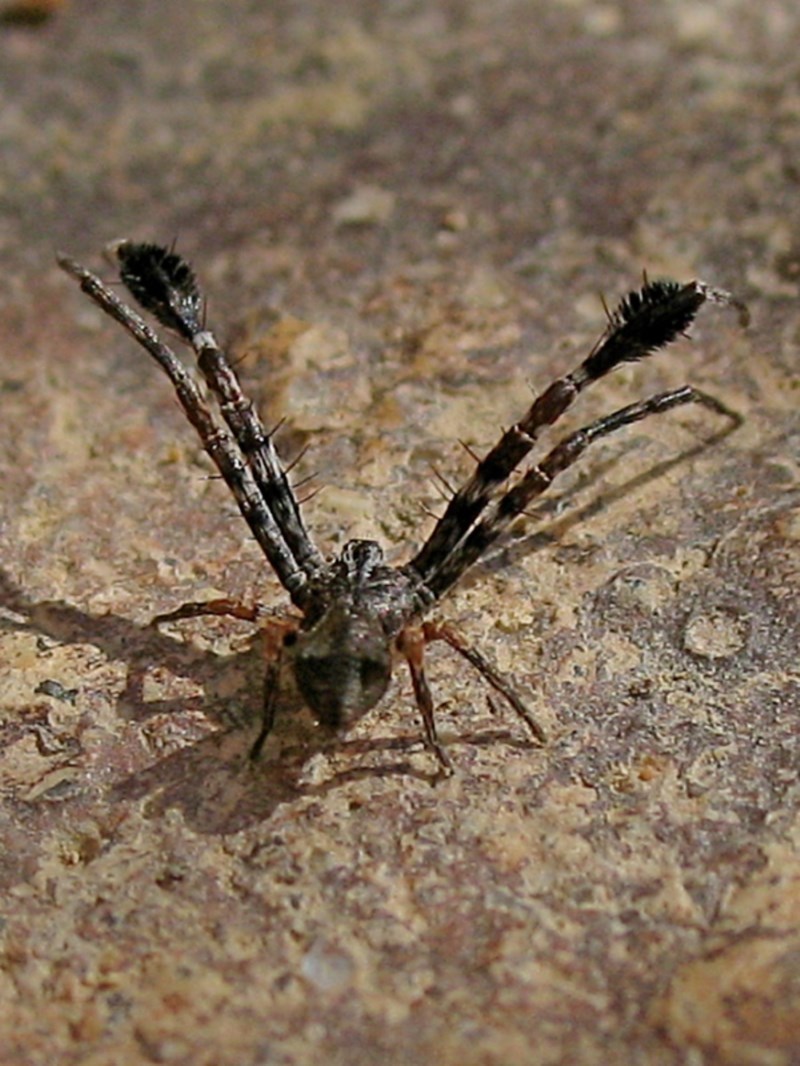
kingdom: Animalia
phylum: Arthropoda
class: Arachnida
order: Araneae
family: Thomisidae
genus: Stephanopis
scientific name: Stephanopis barbipes
